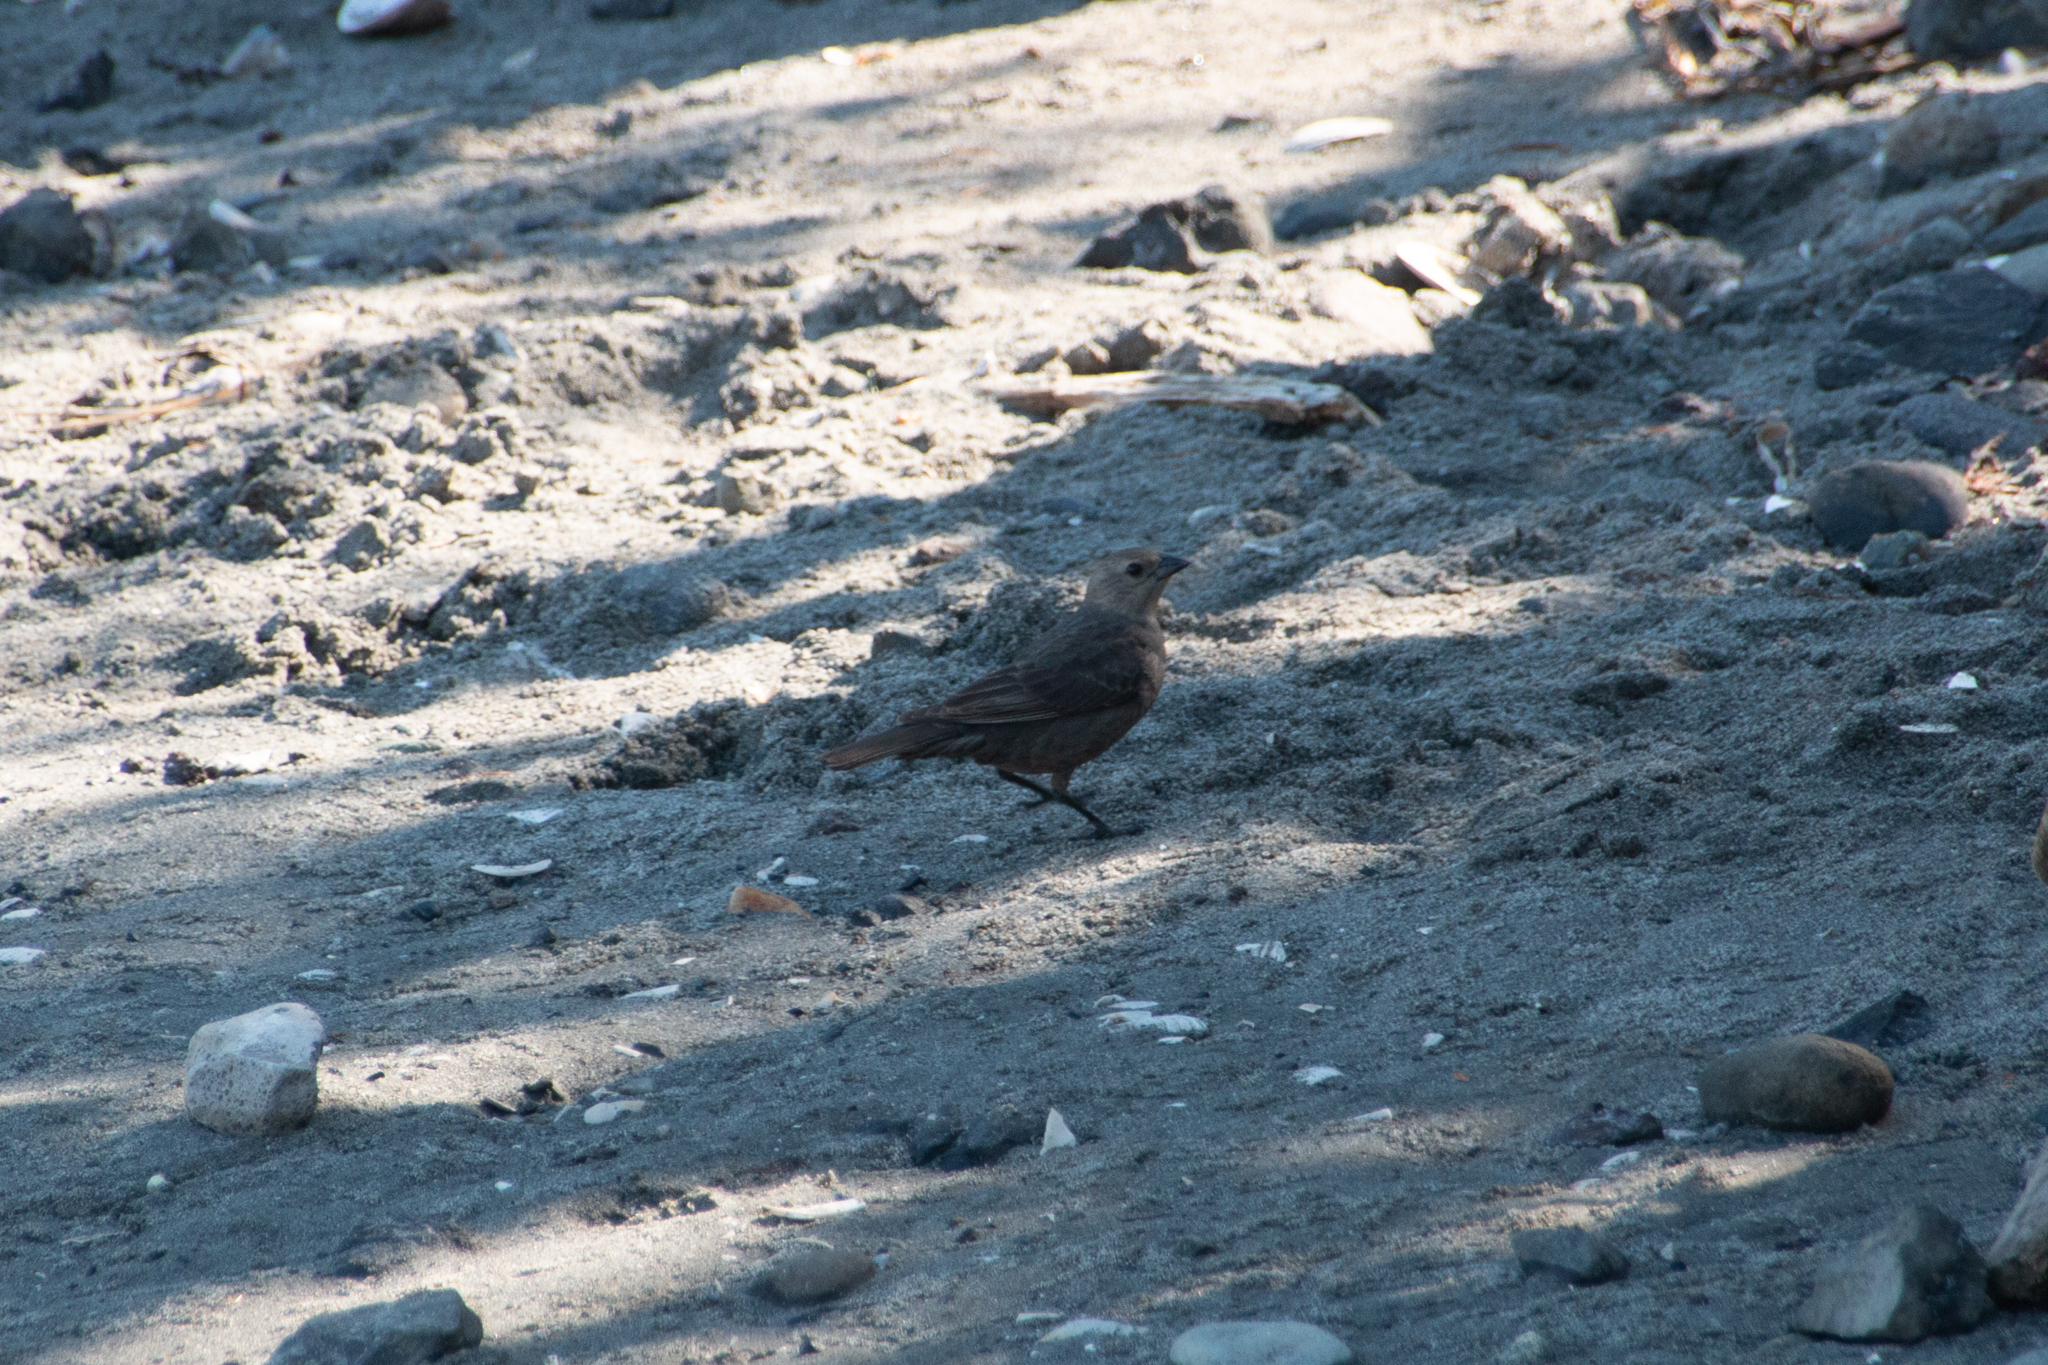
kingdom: Animalia
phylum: Chordata
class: Aves
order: Passeriformes
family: Icteridae
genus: Molothrus
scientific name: Molothrus ater
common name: Brown-headed cowbird
